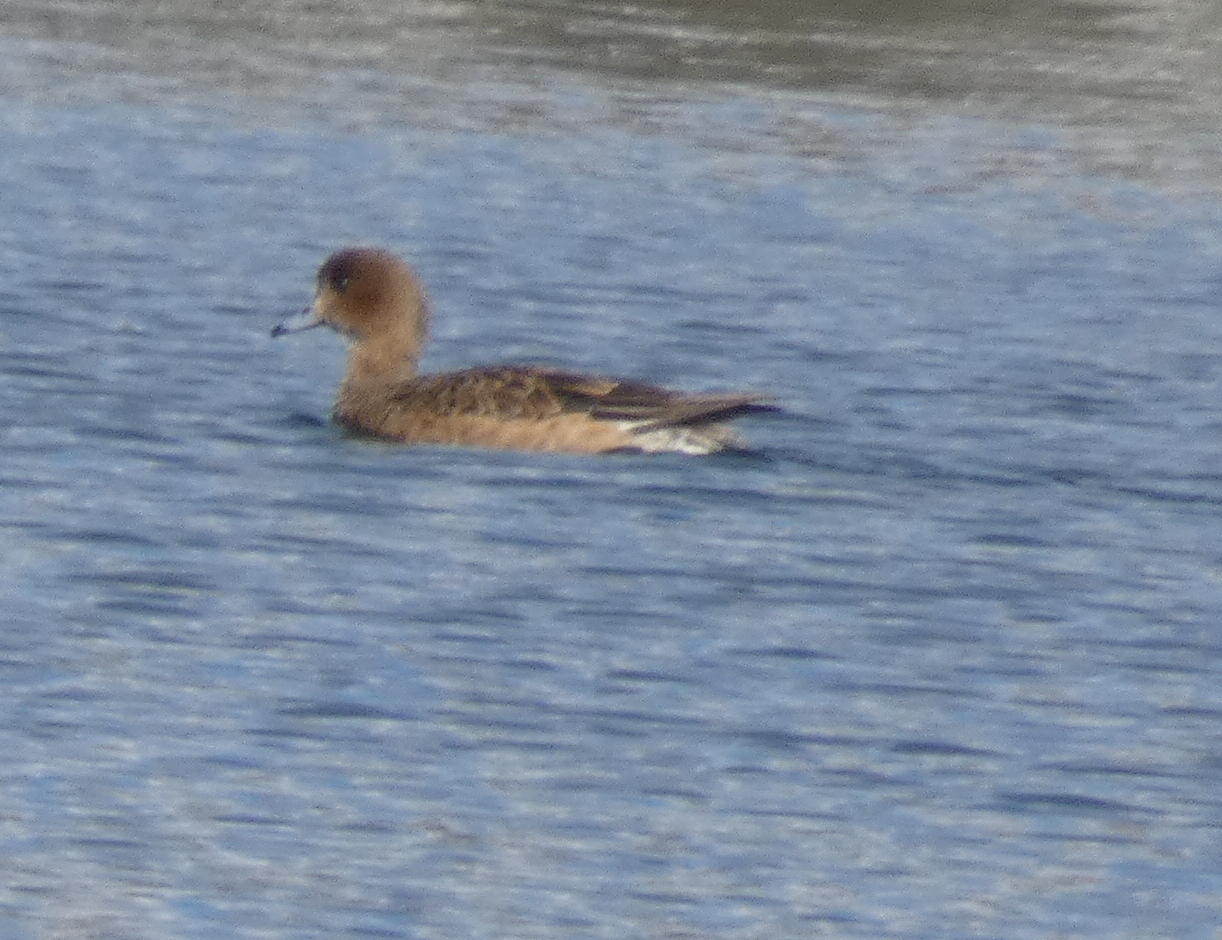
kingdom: Animalia
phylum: Chordata
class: Aves
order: Anseriformes
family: Anatidae
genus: Mareca
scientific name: Mareca penelope
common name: Eurasian wigeon
